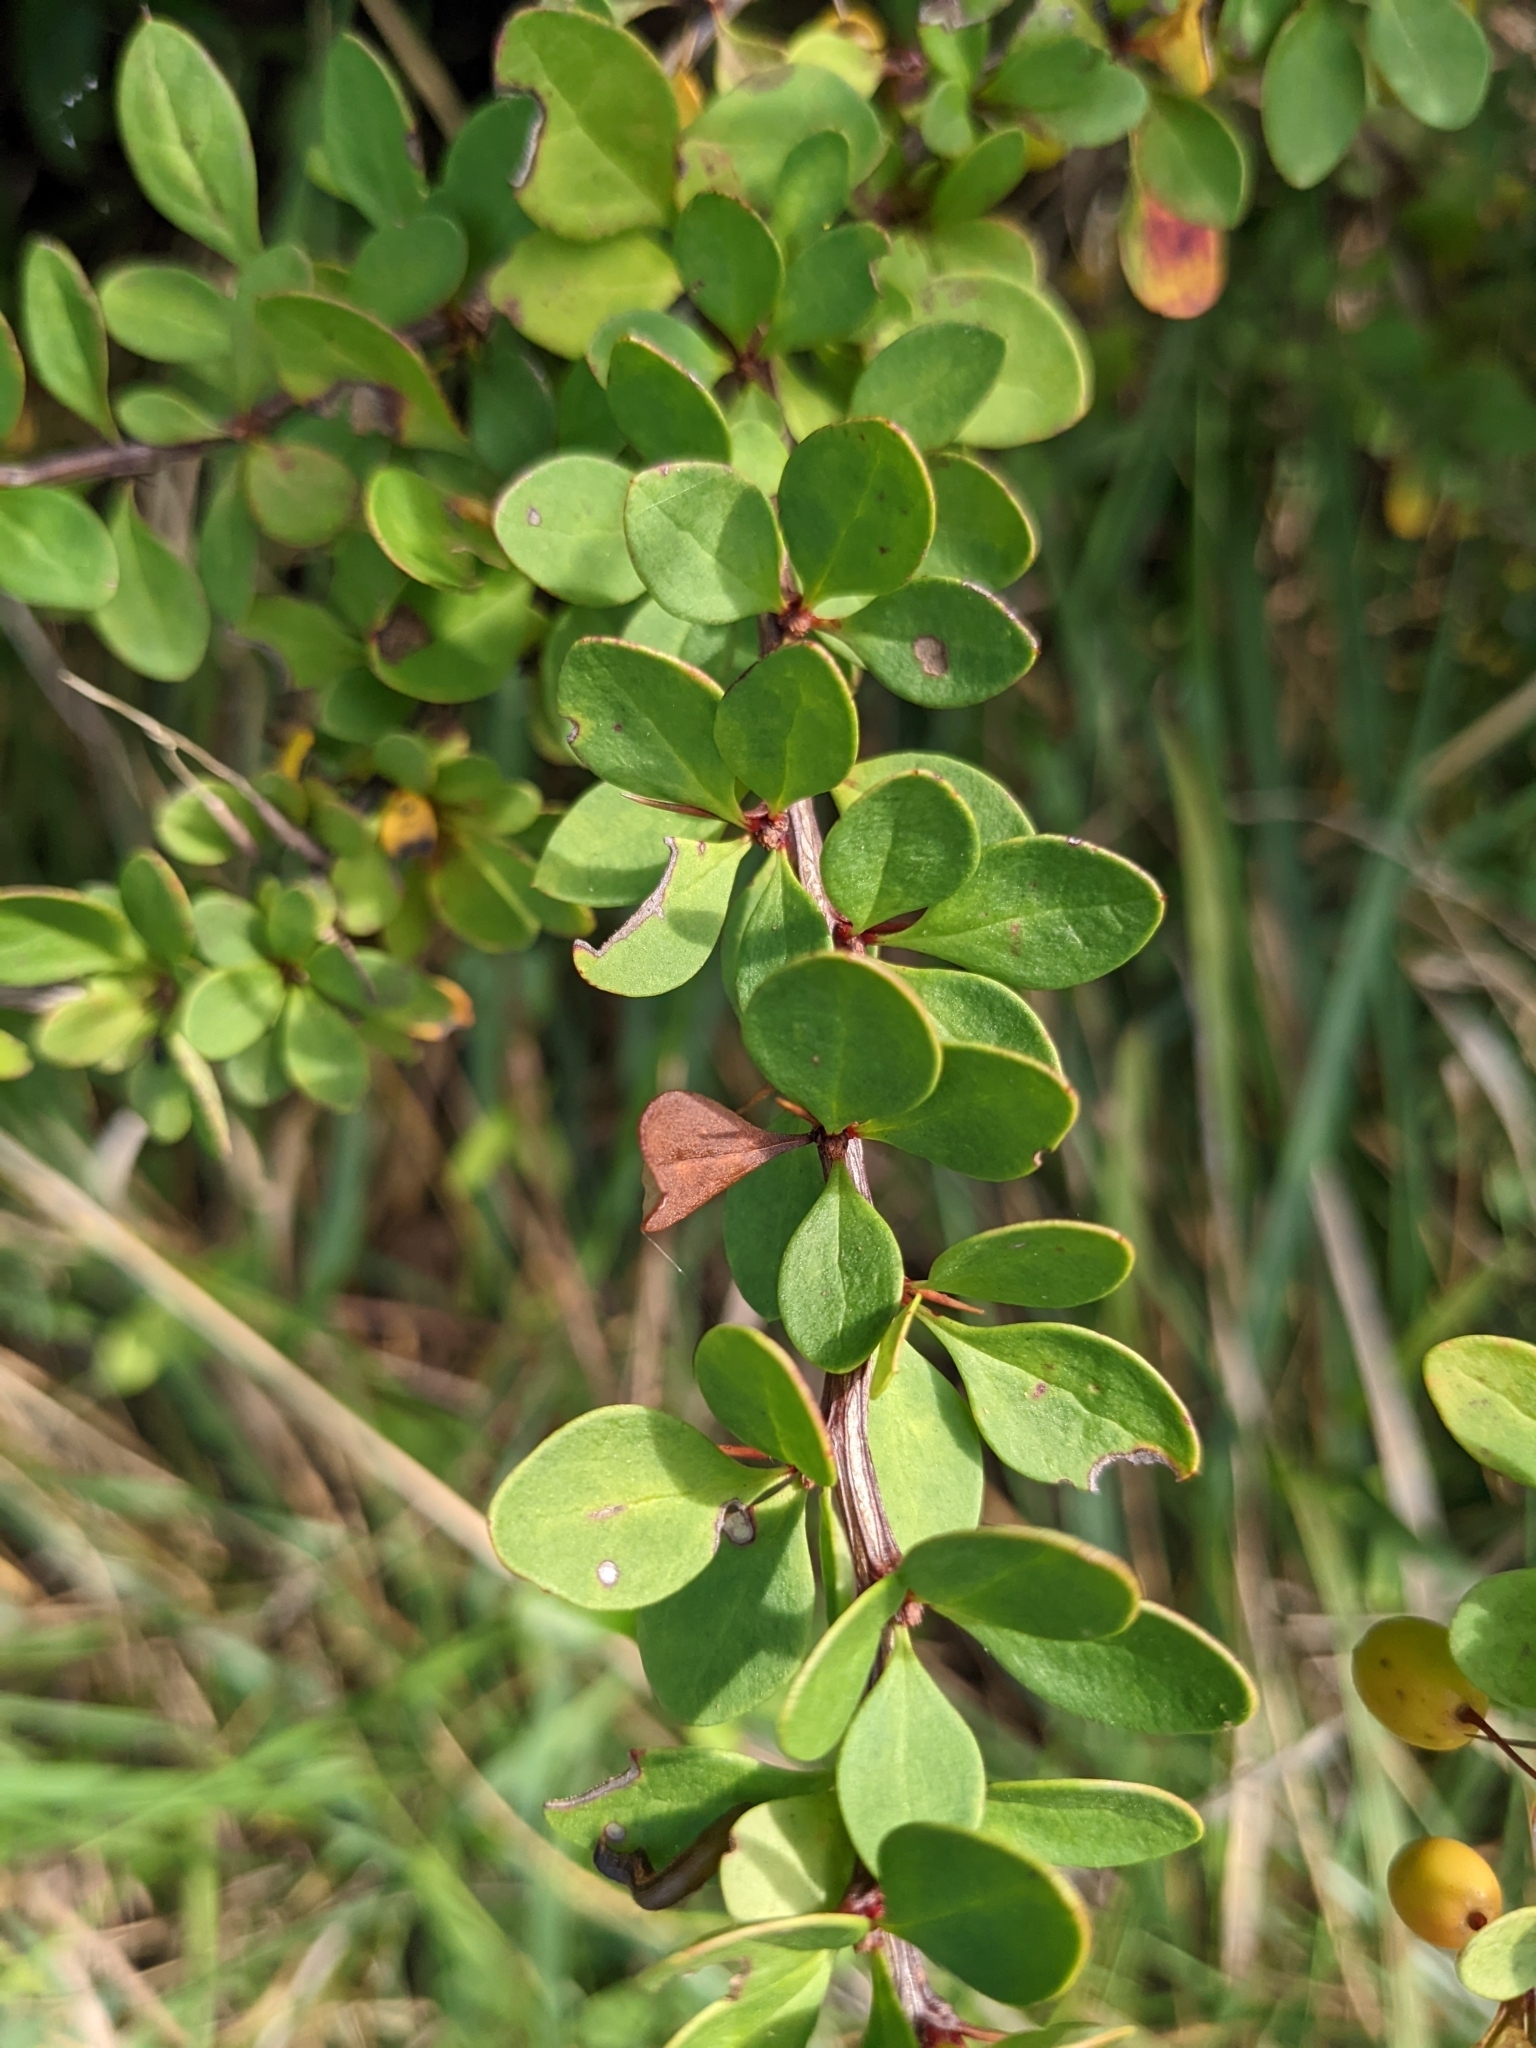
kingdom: Plantae
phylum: Tracheophyta
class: Magnoliopsida
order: Ranunculales
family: Berberidaceae
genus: Berberis
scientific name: Berberis thunbergii
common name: Japanese barberry
